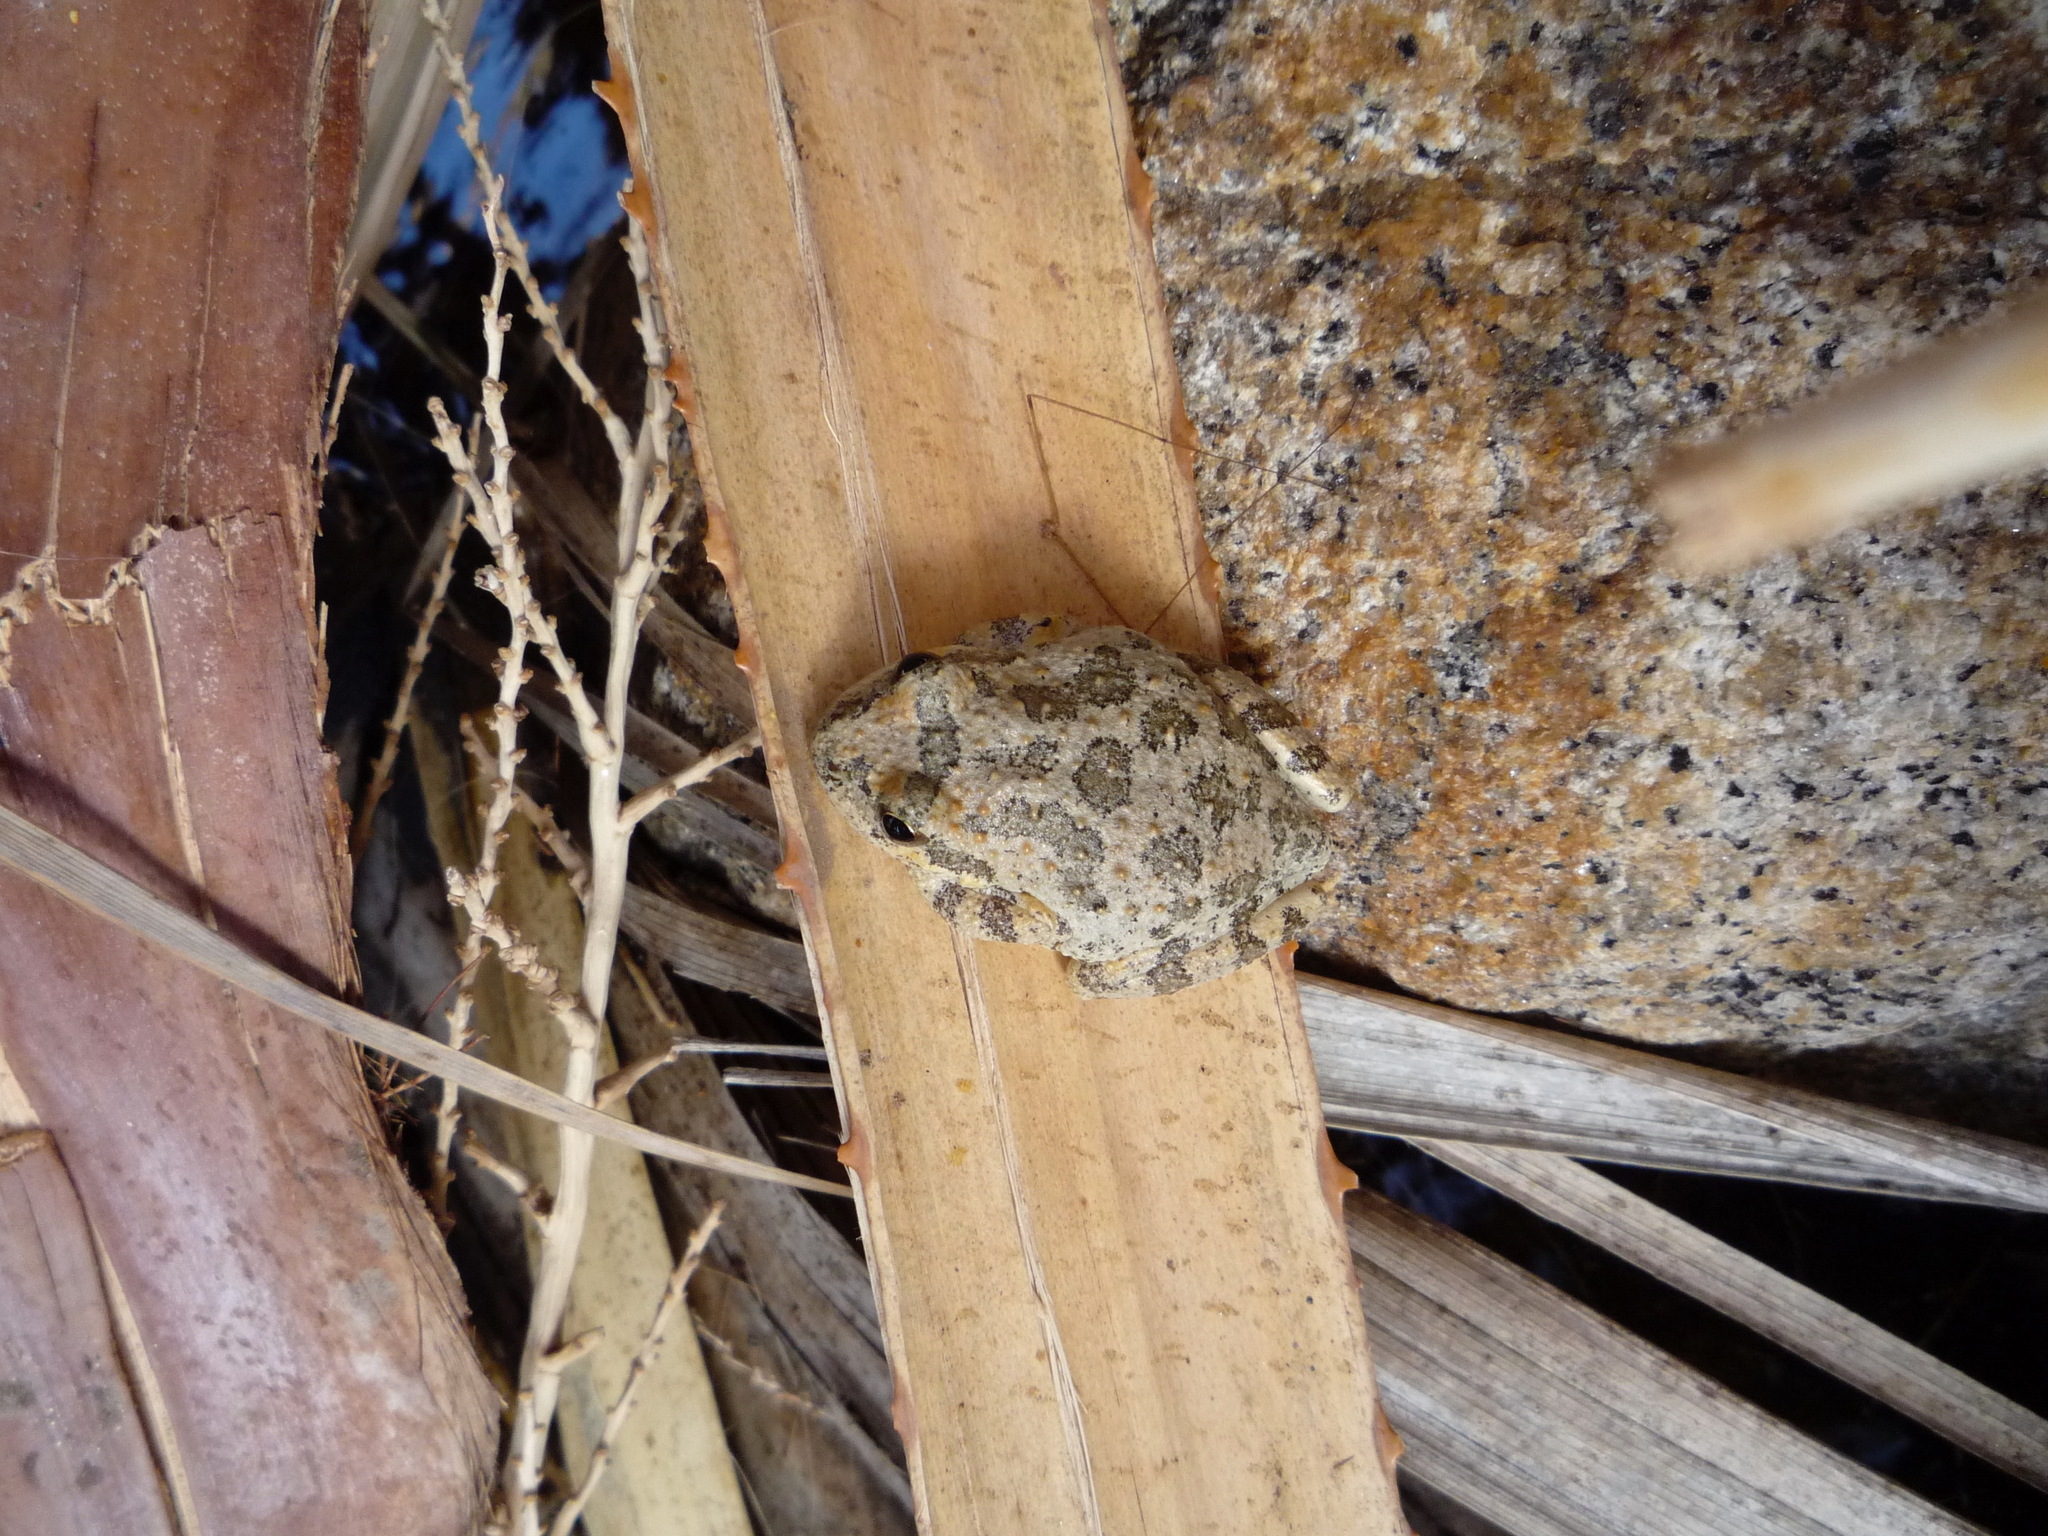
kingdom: Animalia
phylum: Chordata
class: Amphibia
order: Anura
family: Hylidae
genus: Pseudacris
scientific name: Pseudacris cadaverina
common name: California chorus frog
